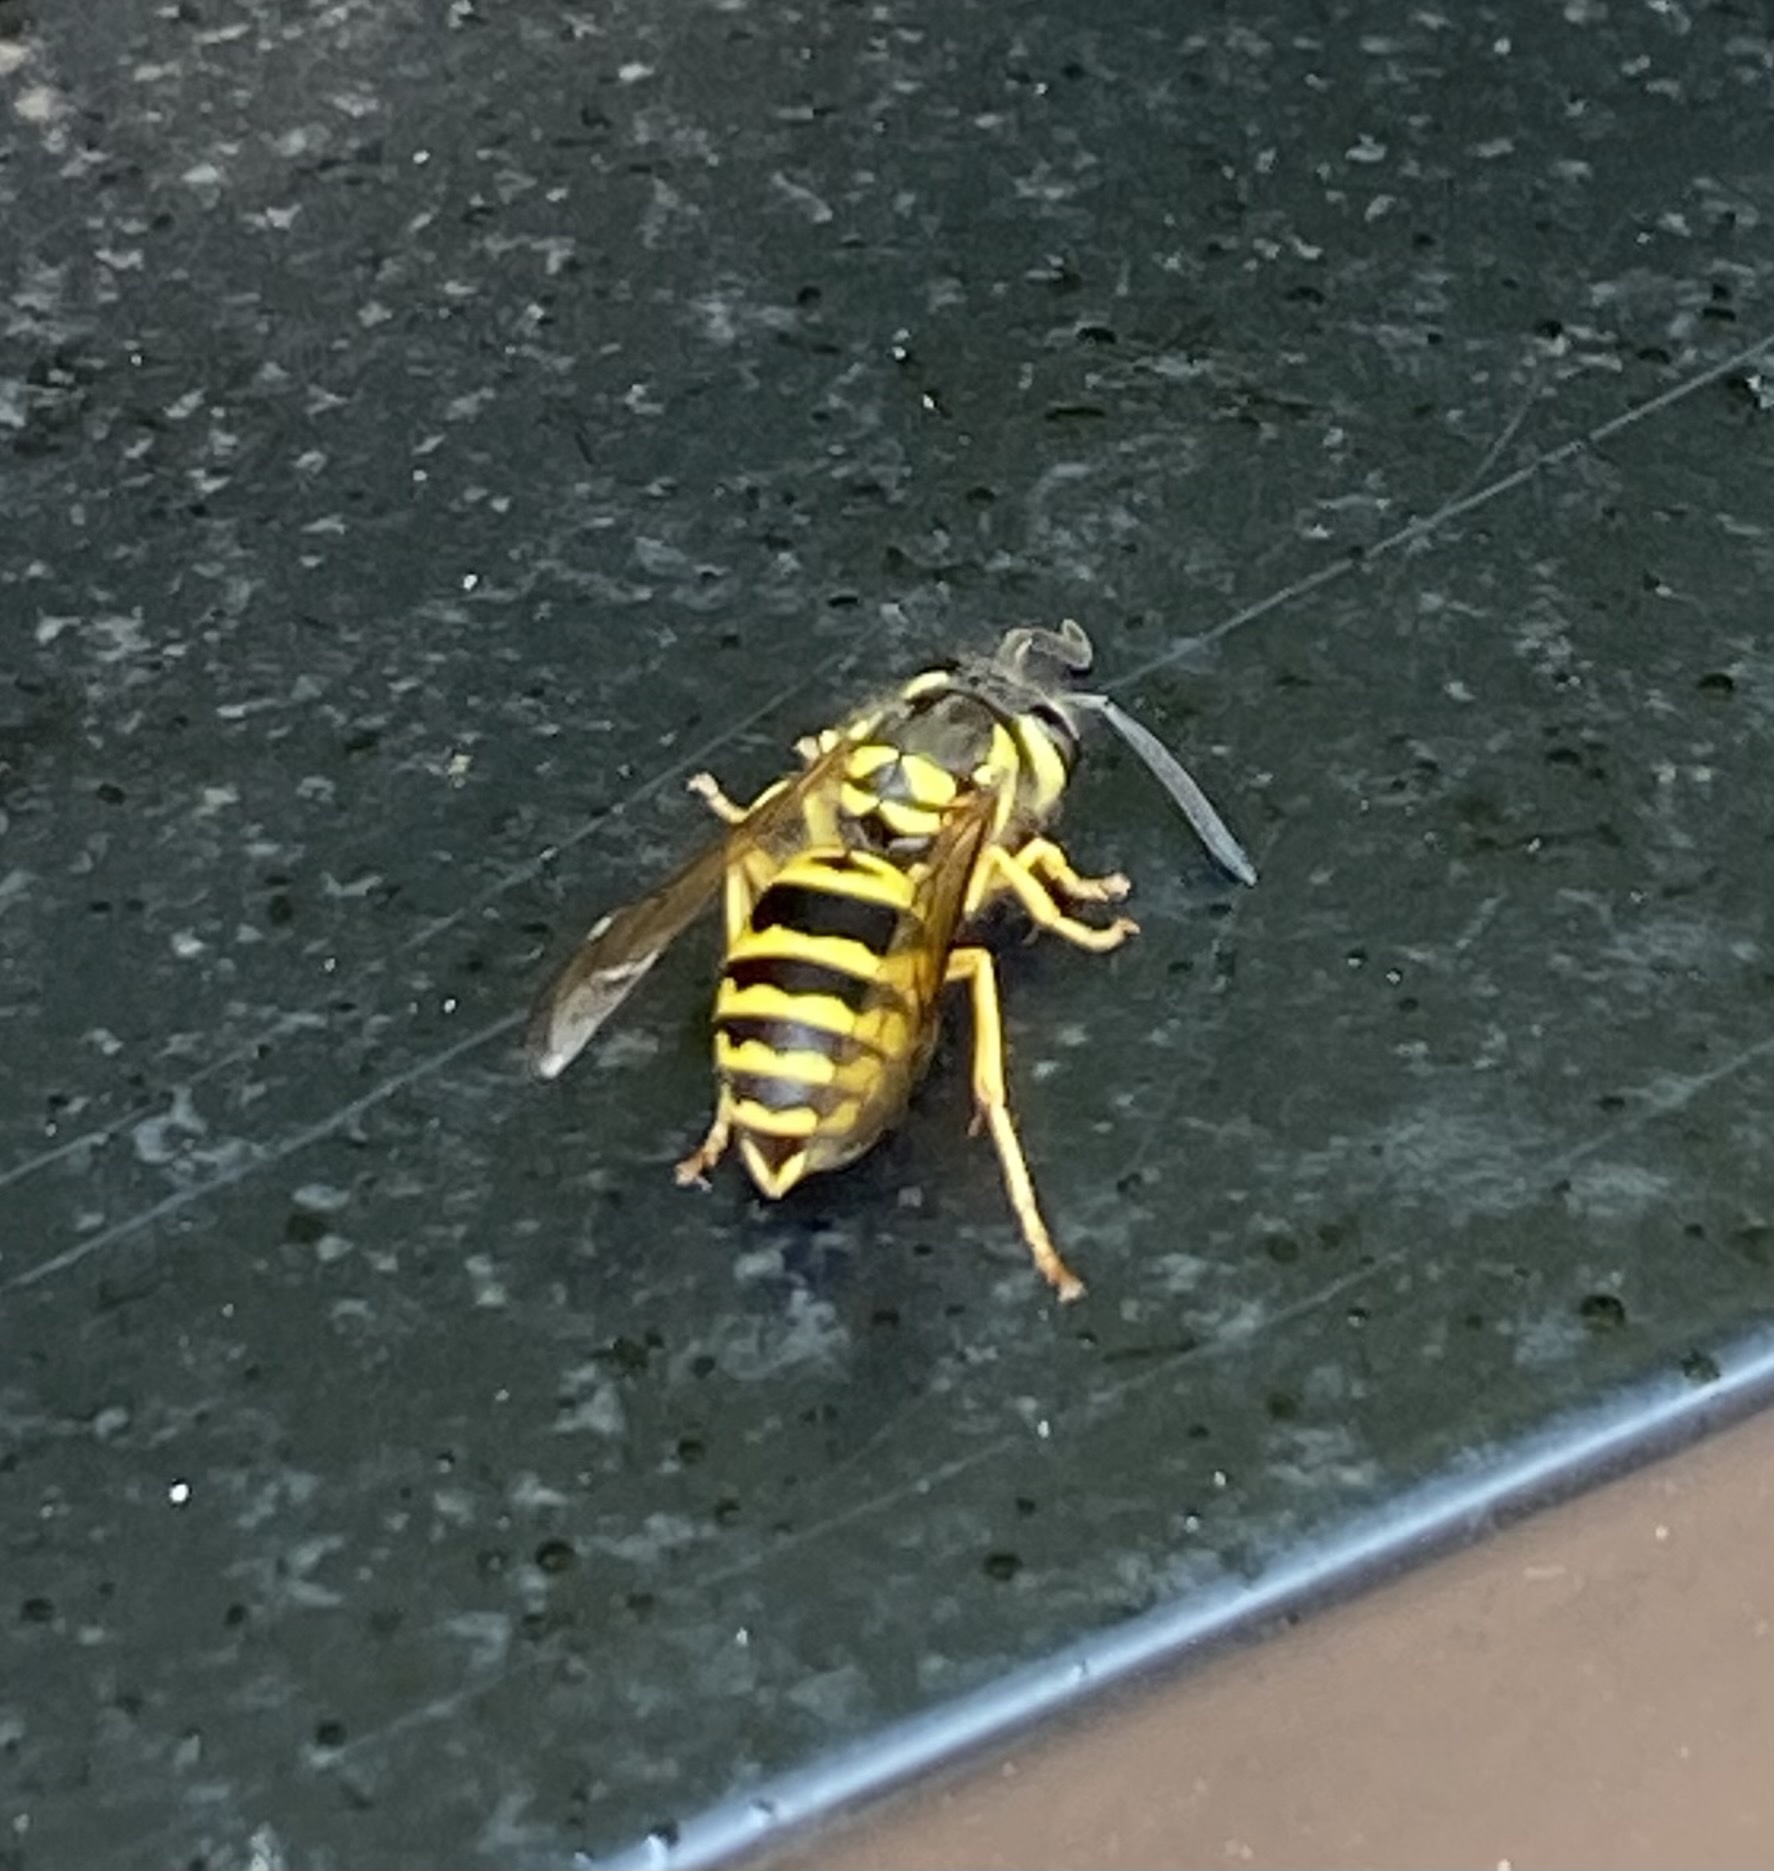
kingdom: Animalia
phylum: Arthropoda
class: Insecta
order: Hymenoptera
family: Vespidae
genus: Vespula
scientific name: Vespula maculifrons
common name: Eastern yellowjacket
